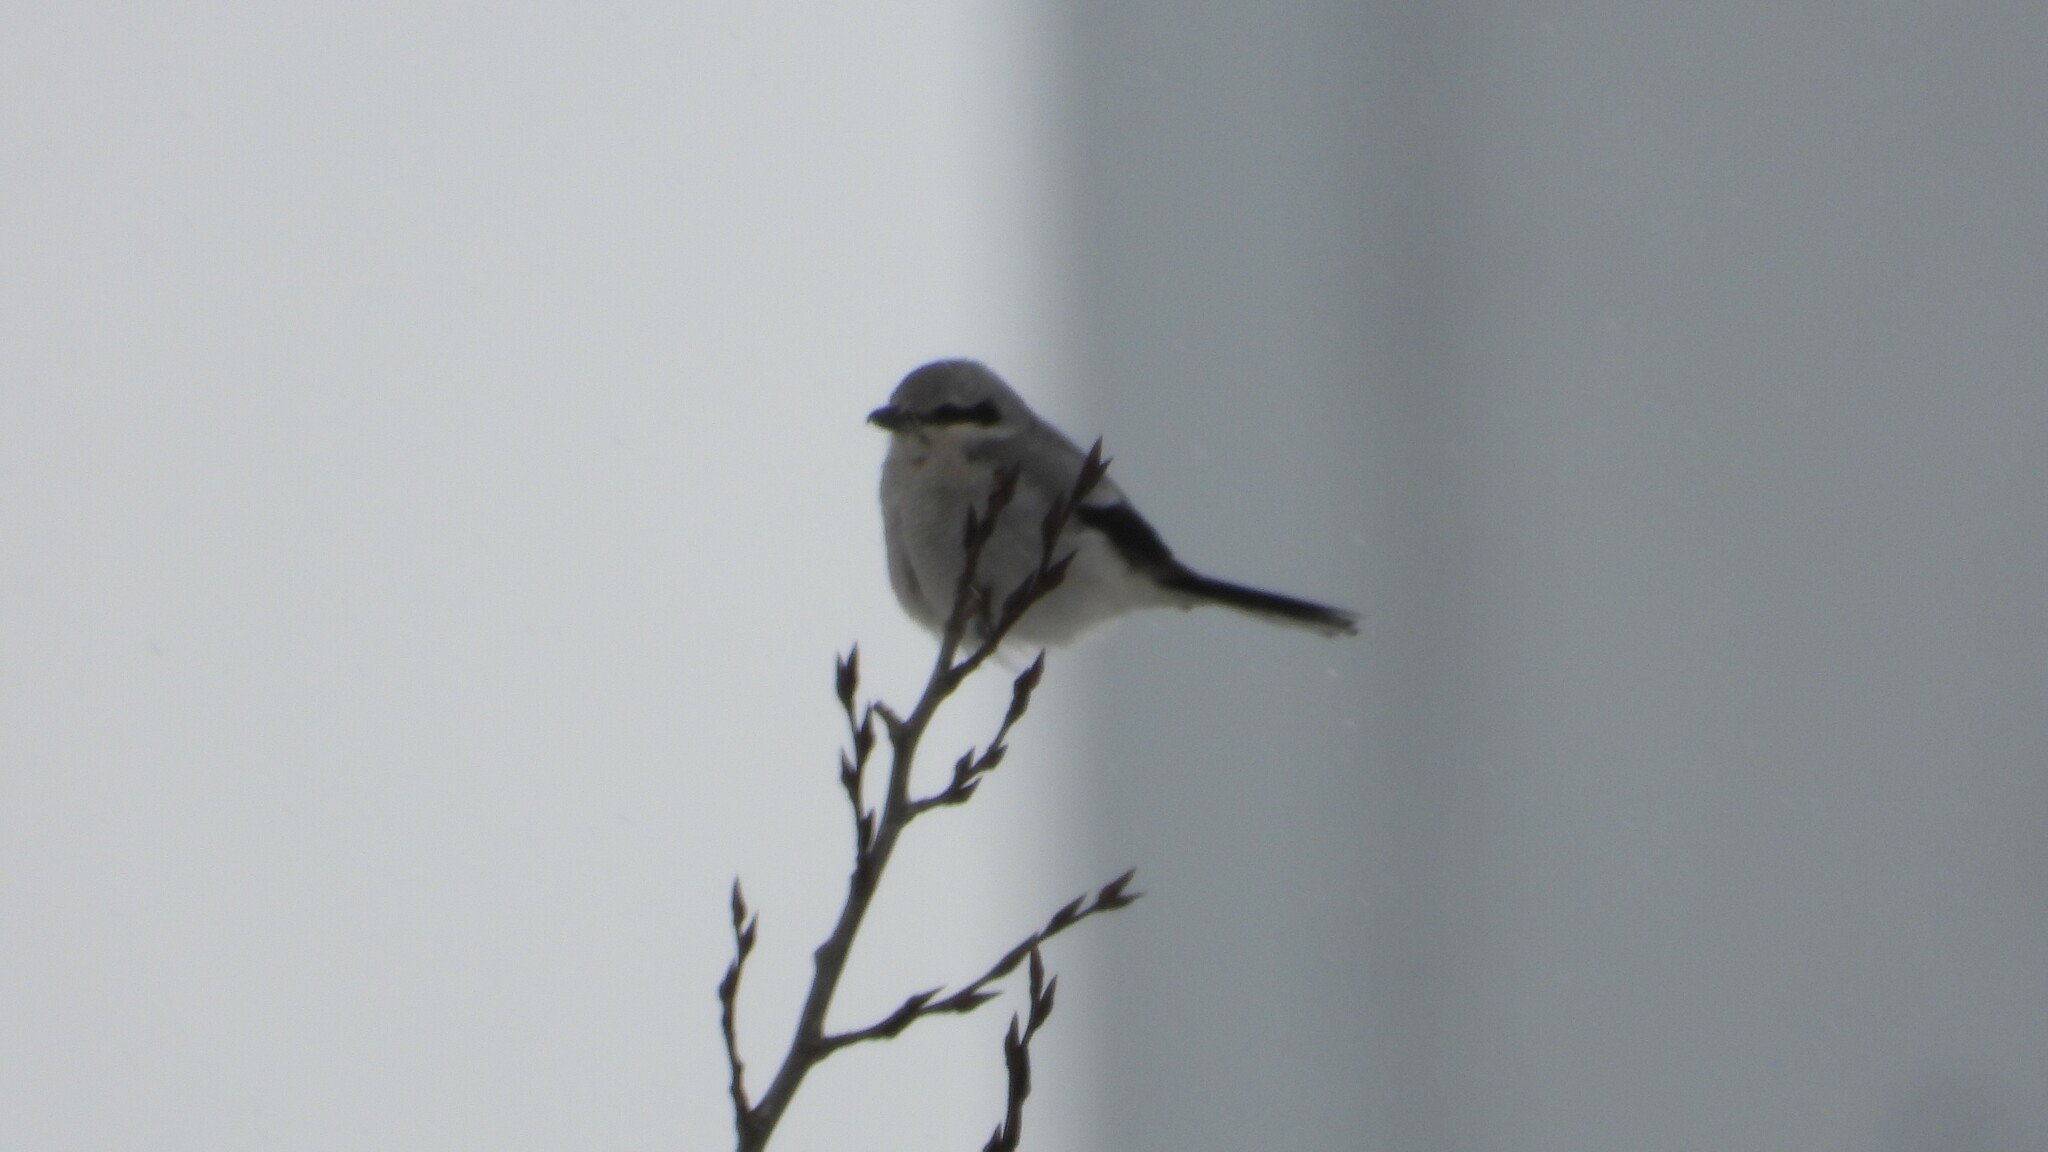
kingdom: Animalia
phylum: Chordata
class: Aves
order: Passeriformes
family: Laniidae
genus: Lanius
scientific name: Lanius borealis
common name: Northern shrike
